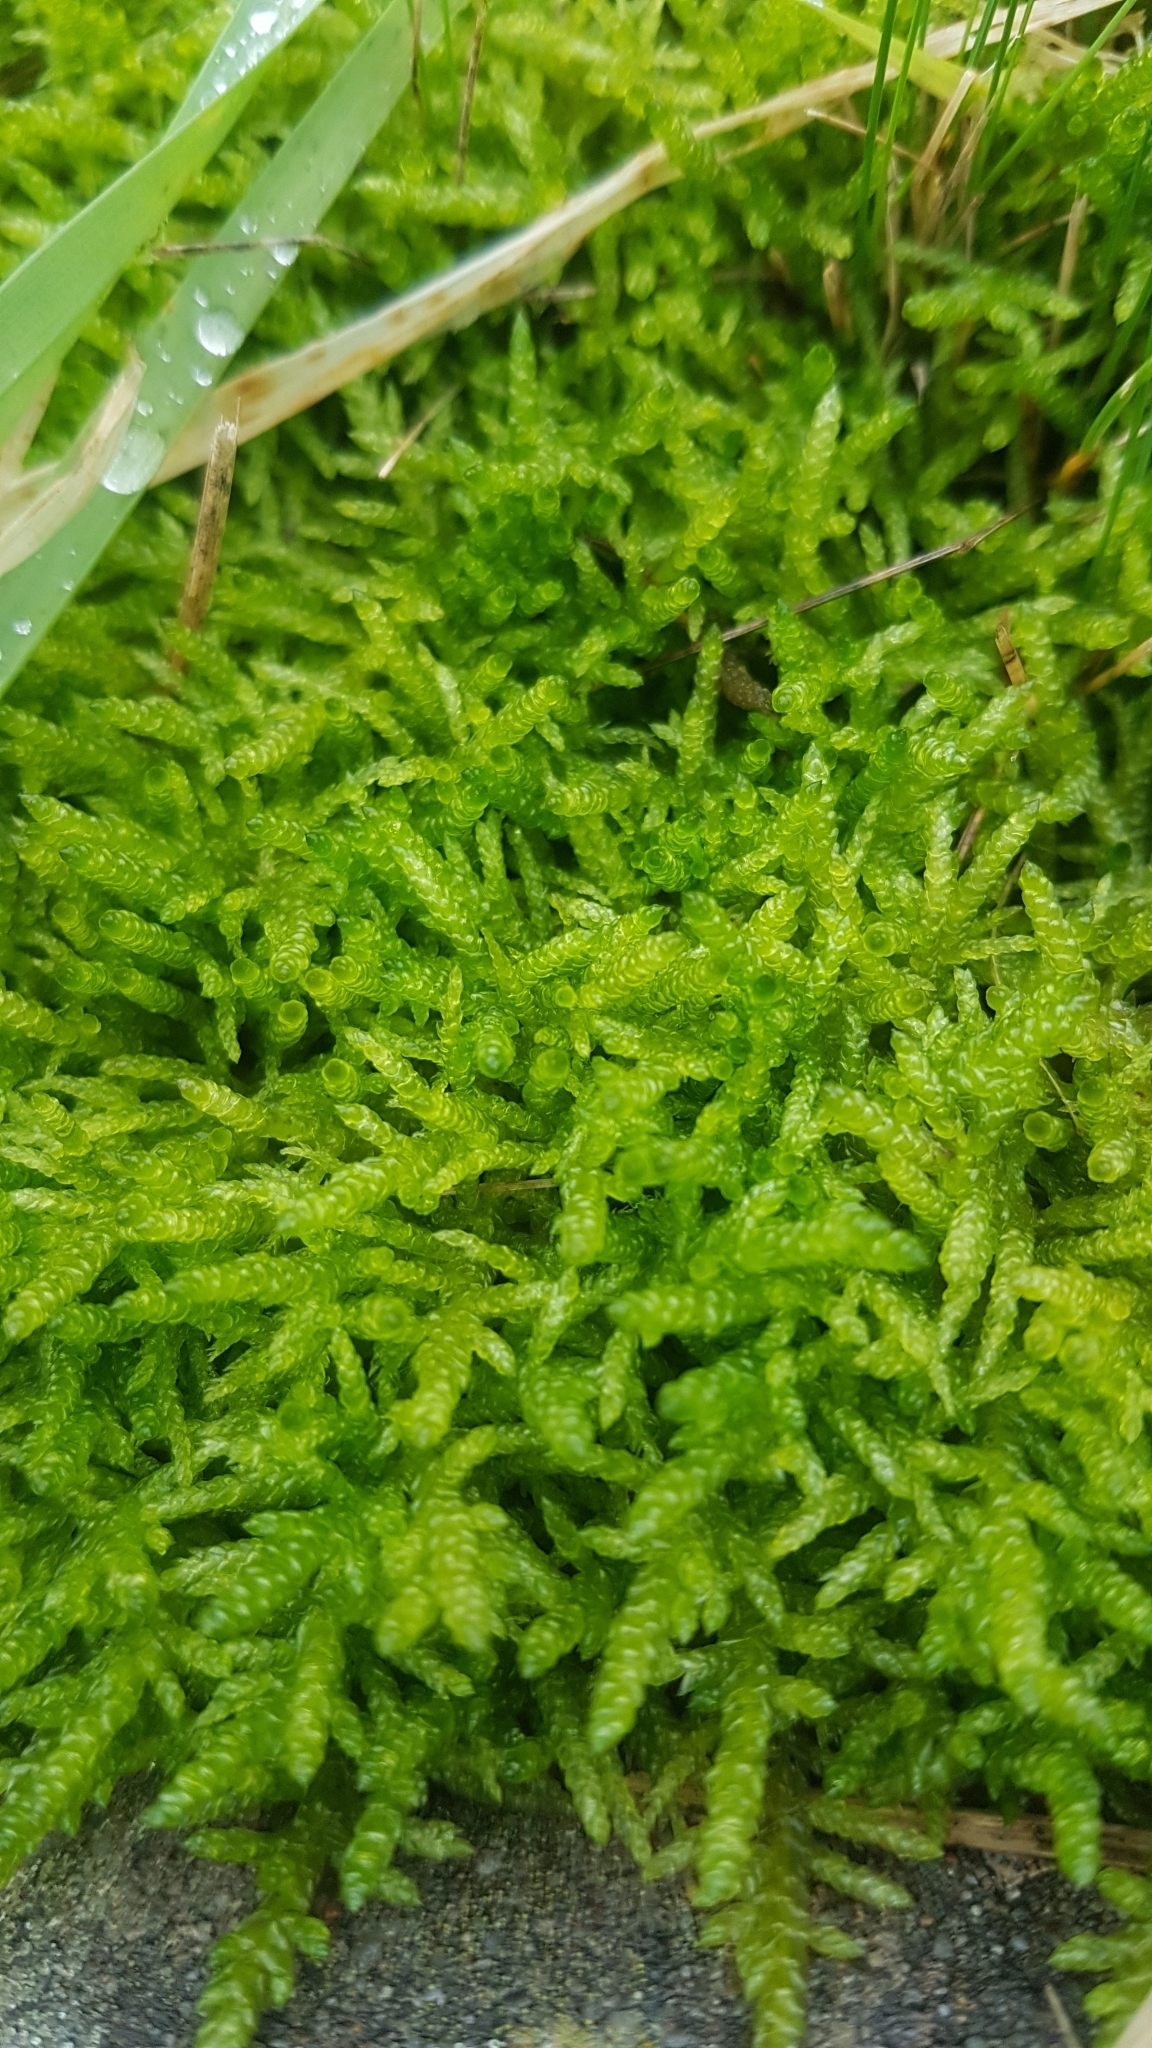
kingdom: Plantae
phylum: Bryophyta
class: Bryopsida
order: Hypnales
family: Brachytheciaceae
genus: Pseudoscleropodium
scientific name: Pseudoscleropodium purum
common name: Neat feather-moss
